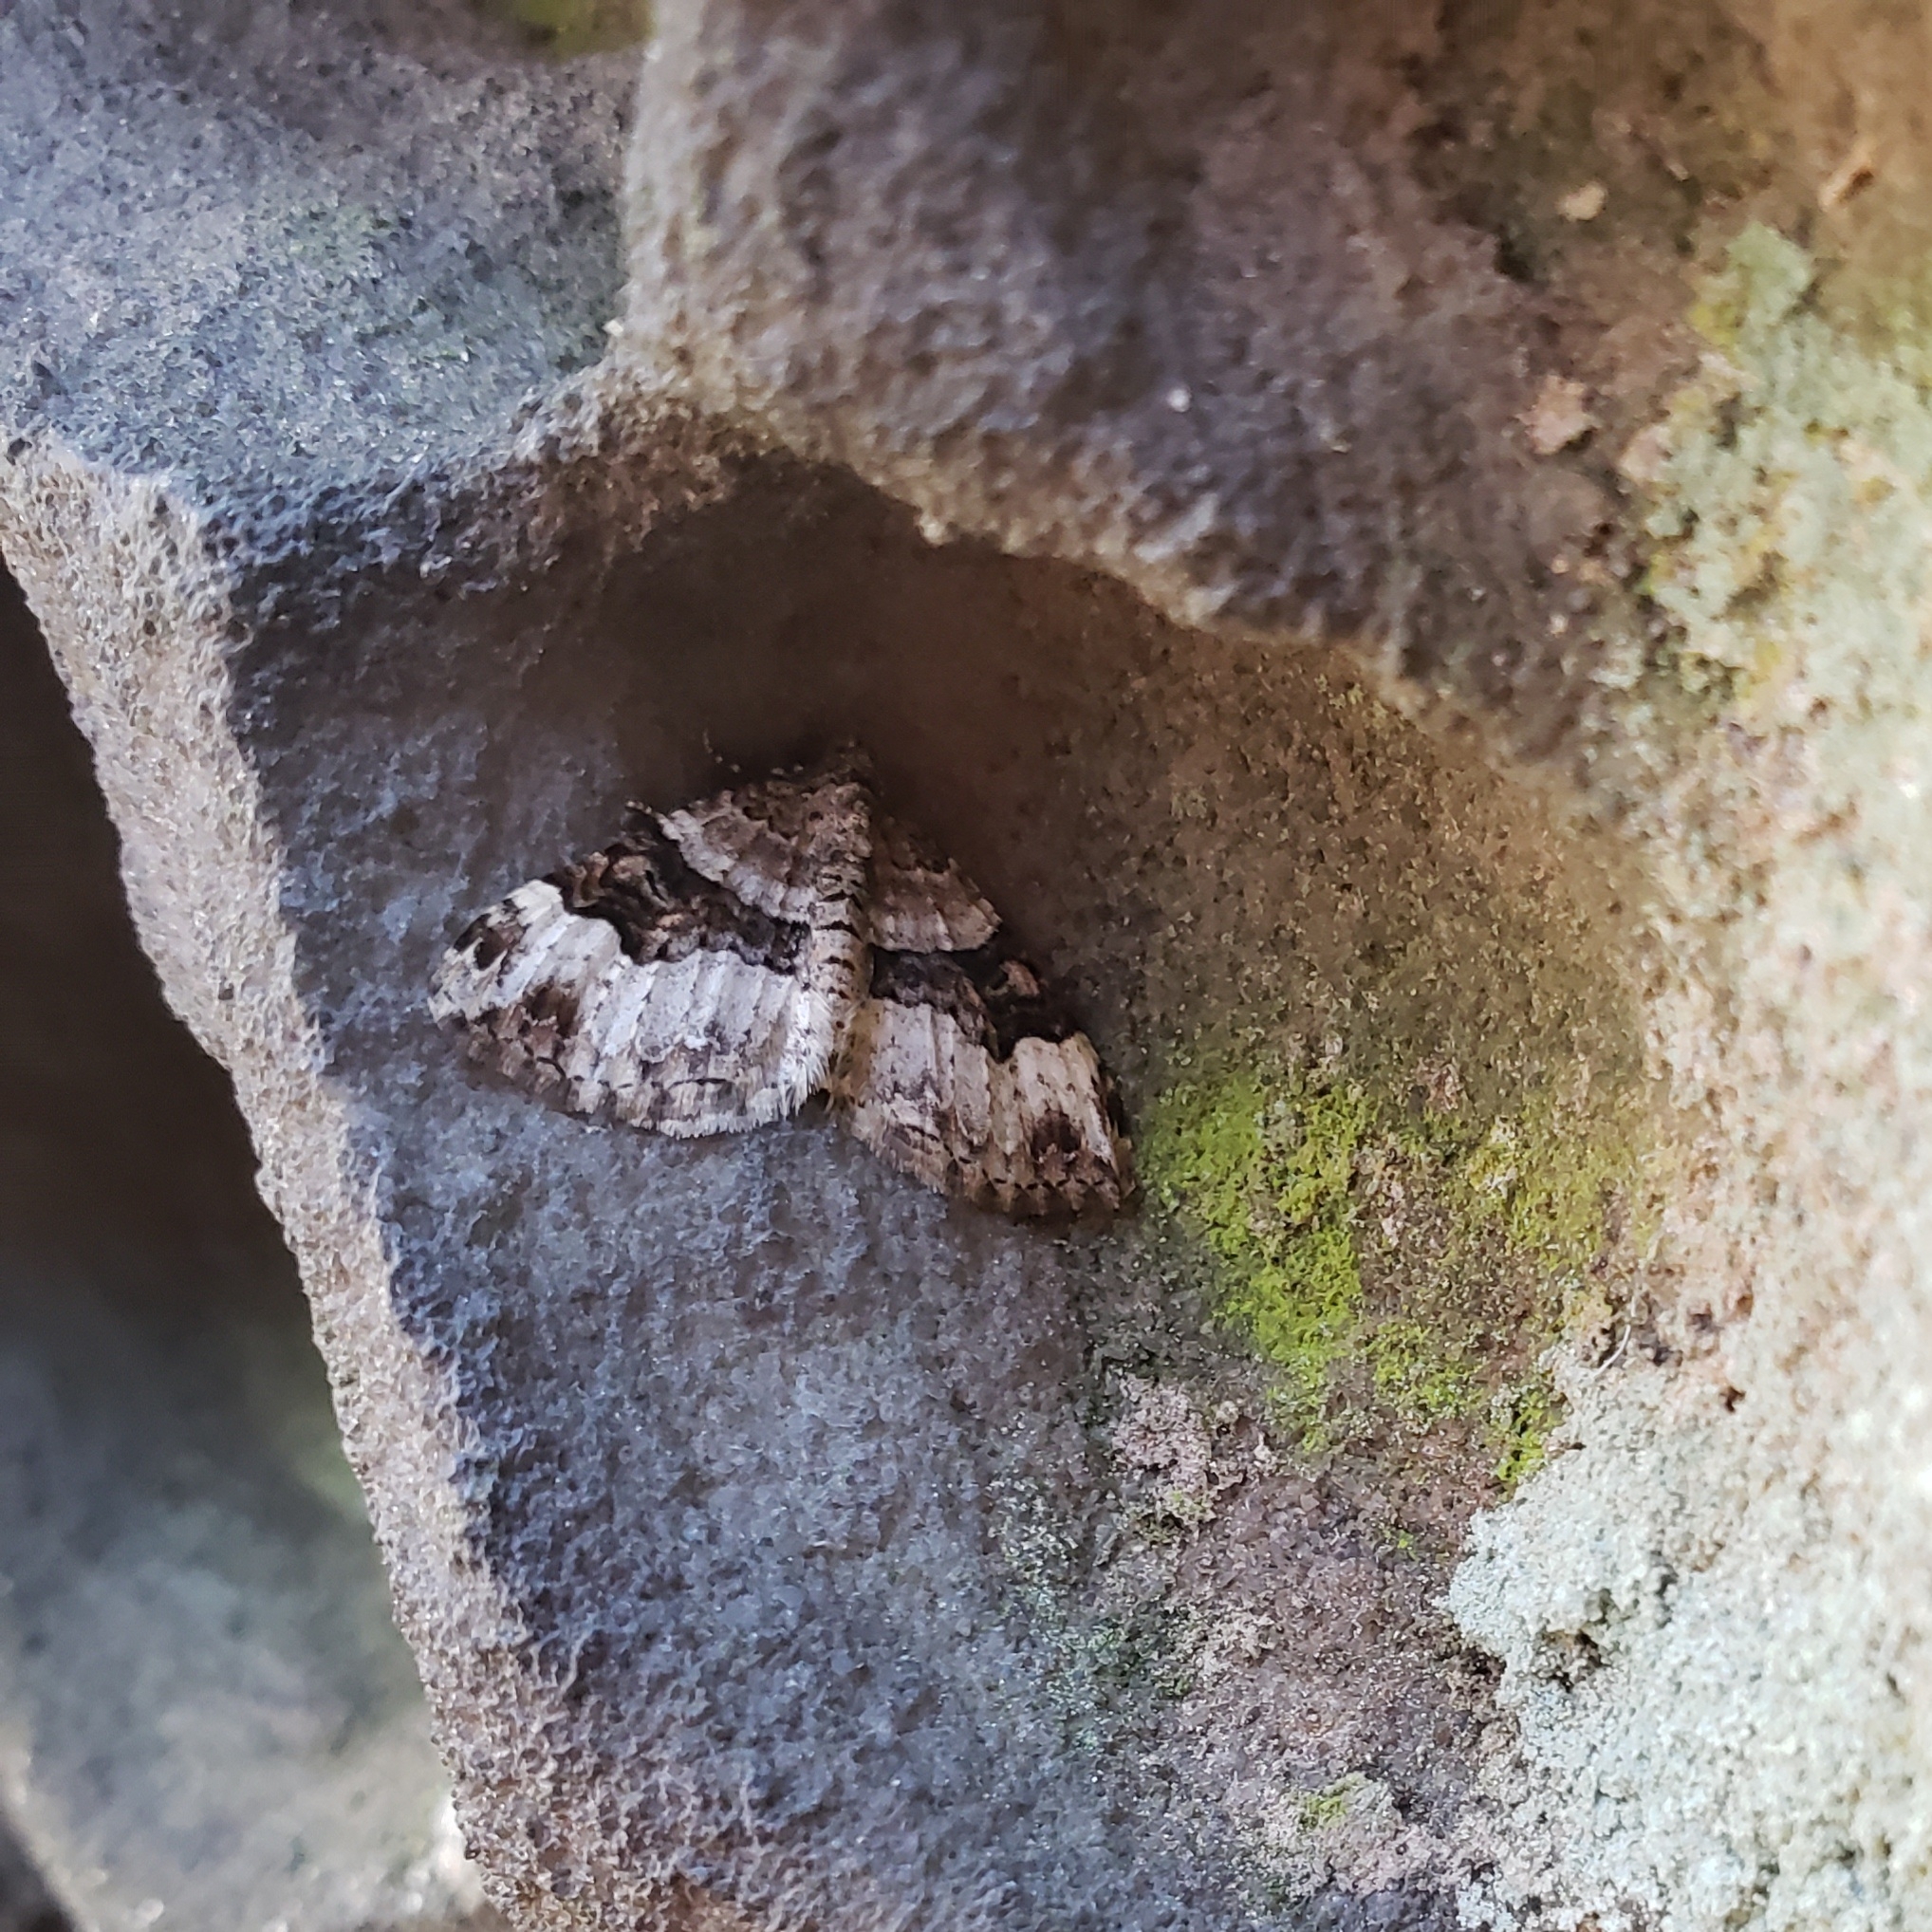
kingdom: Animalia
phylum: Arthropoda
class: Insecta
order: Lepidoptera
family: Geometridae
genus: Xanthorhoe
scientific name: Xanthorhoe lacustrata
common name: Toothed brown carpet
